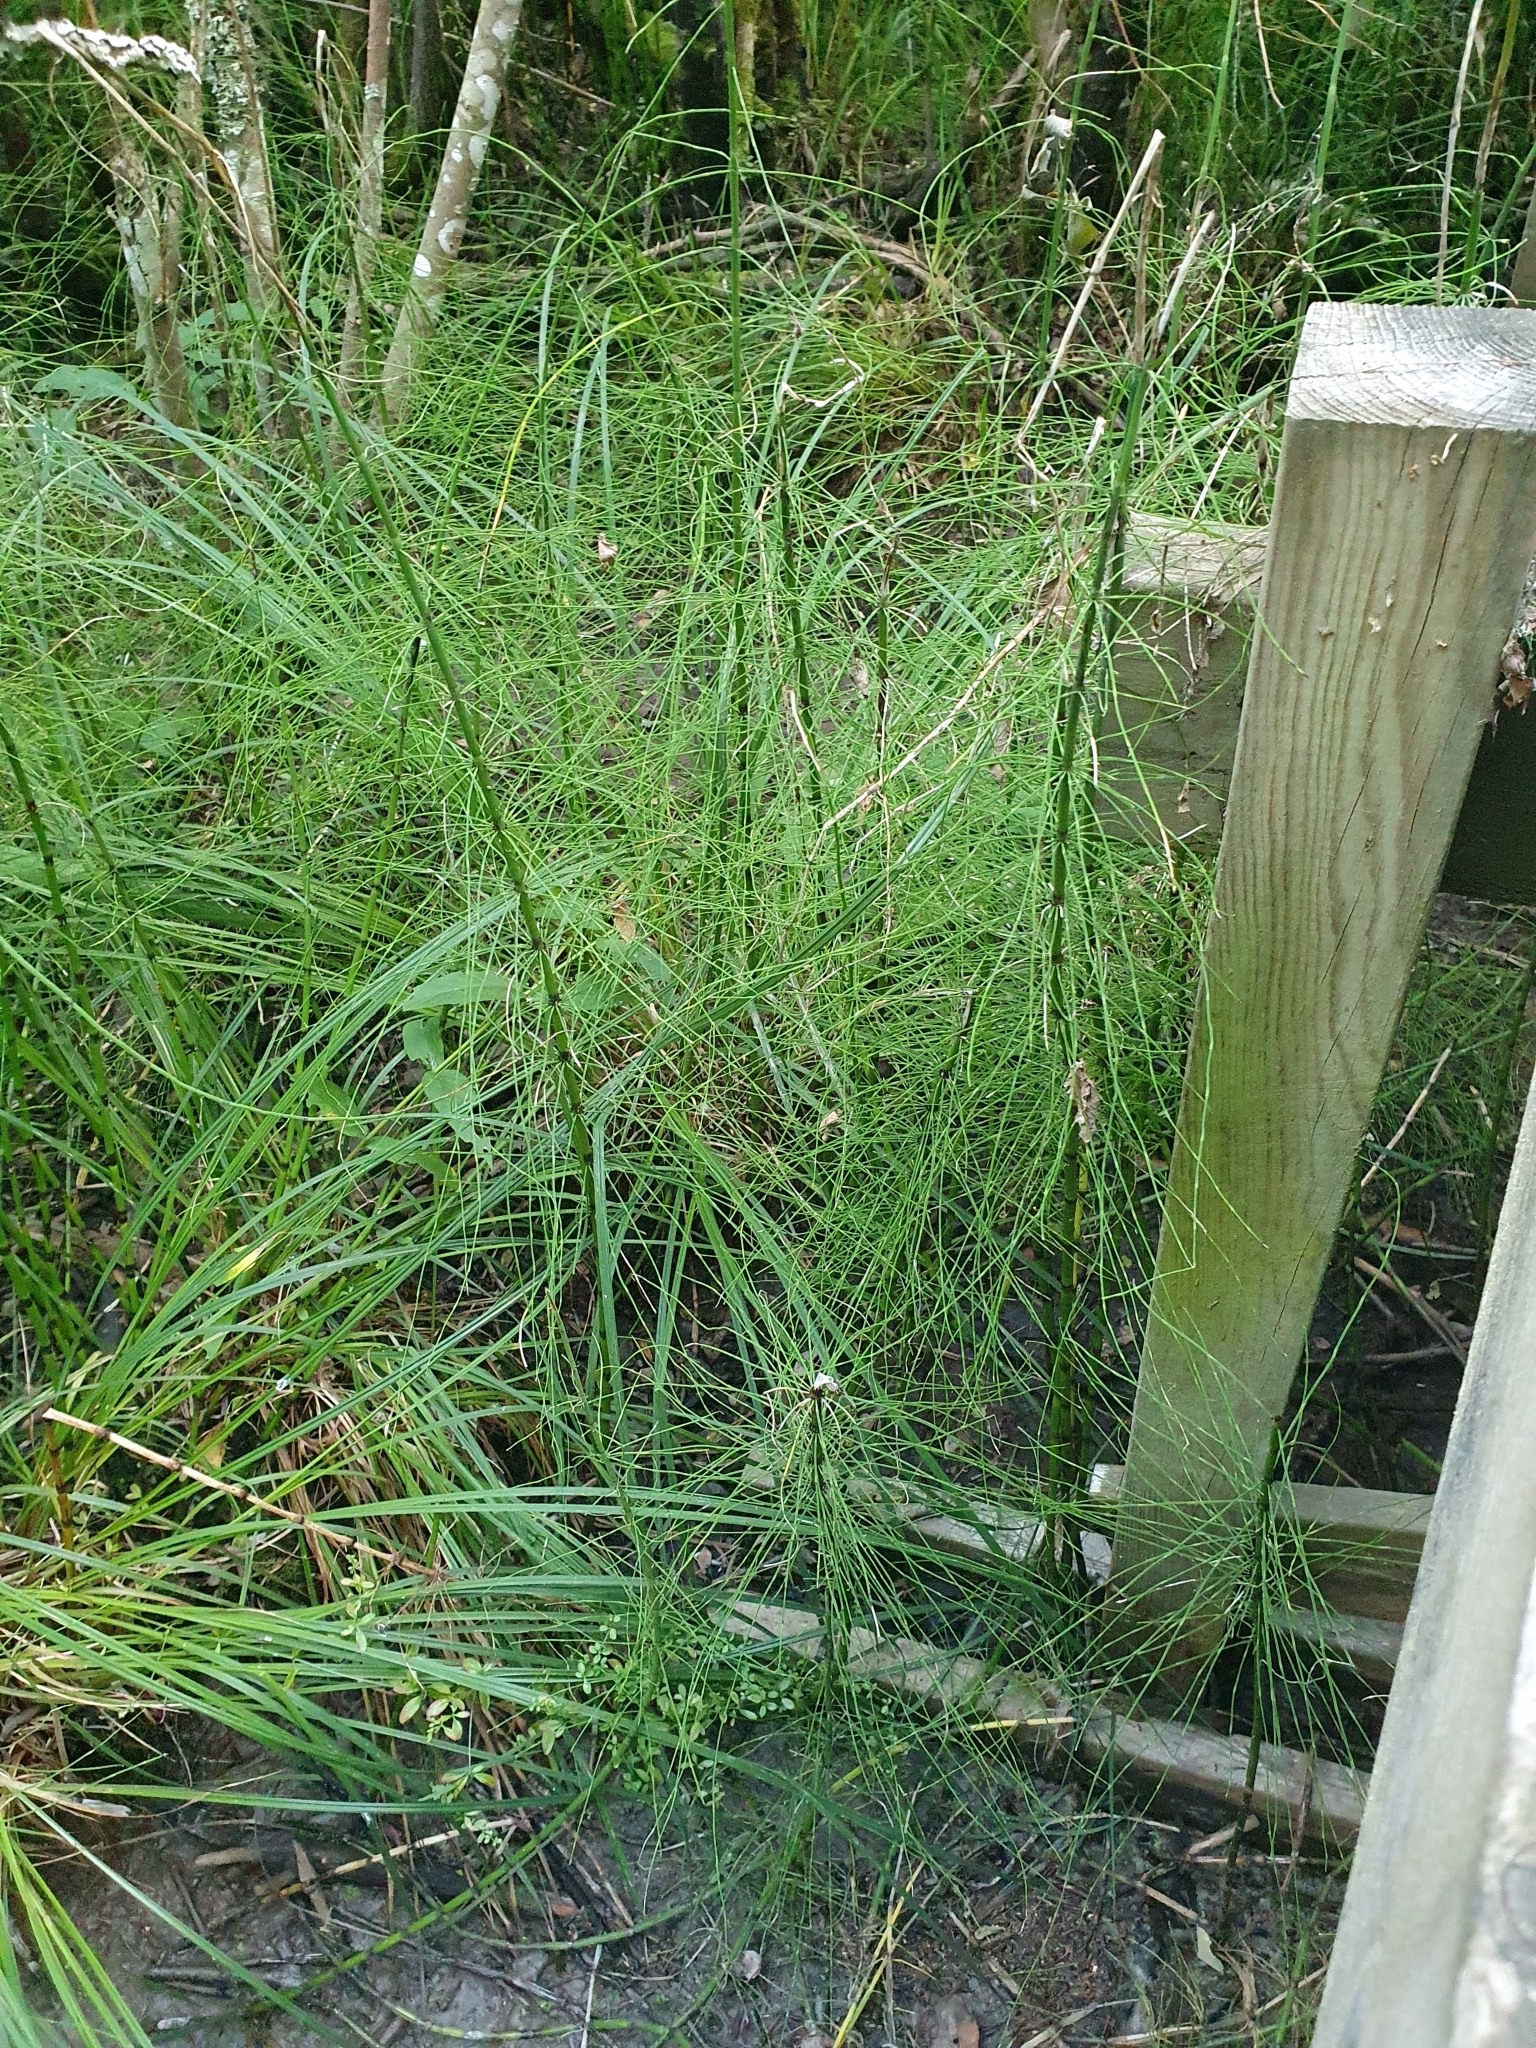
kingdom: Plantae
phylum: Tracheophyta
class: Polypodiopsida
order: Equisetales
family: Equisetaceae
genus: Equisetum
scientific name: Equisetum fluviatile
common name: Water horsetail
